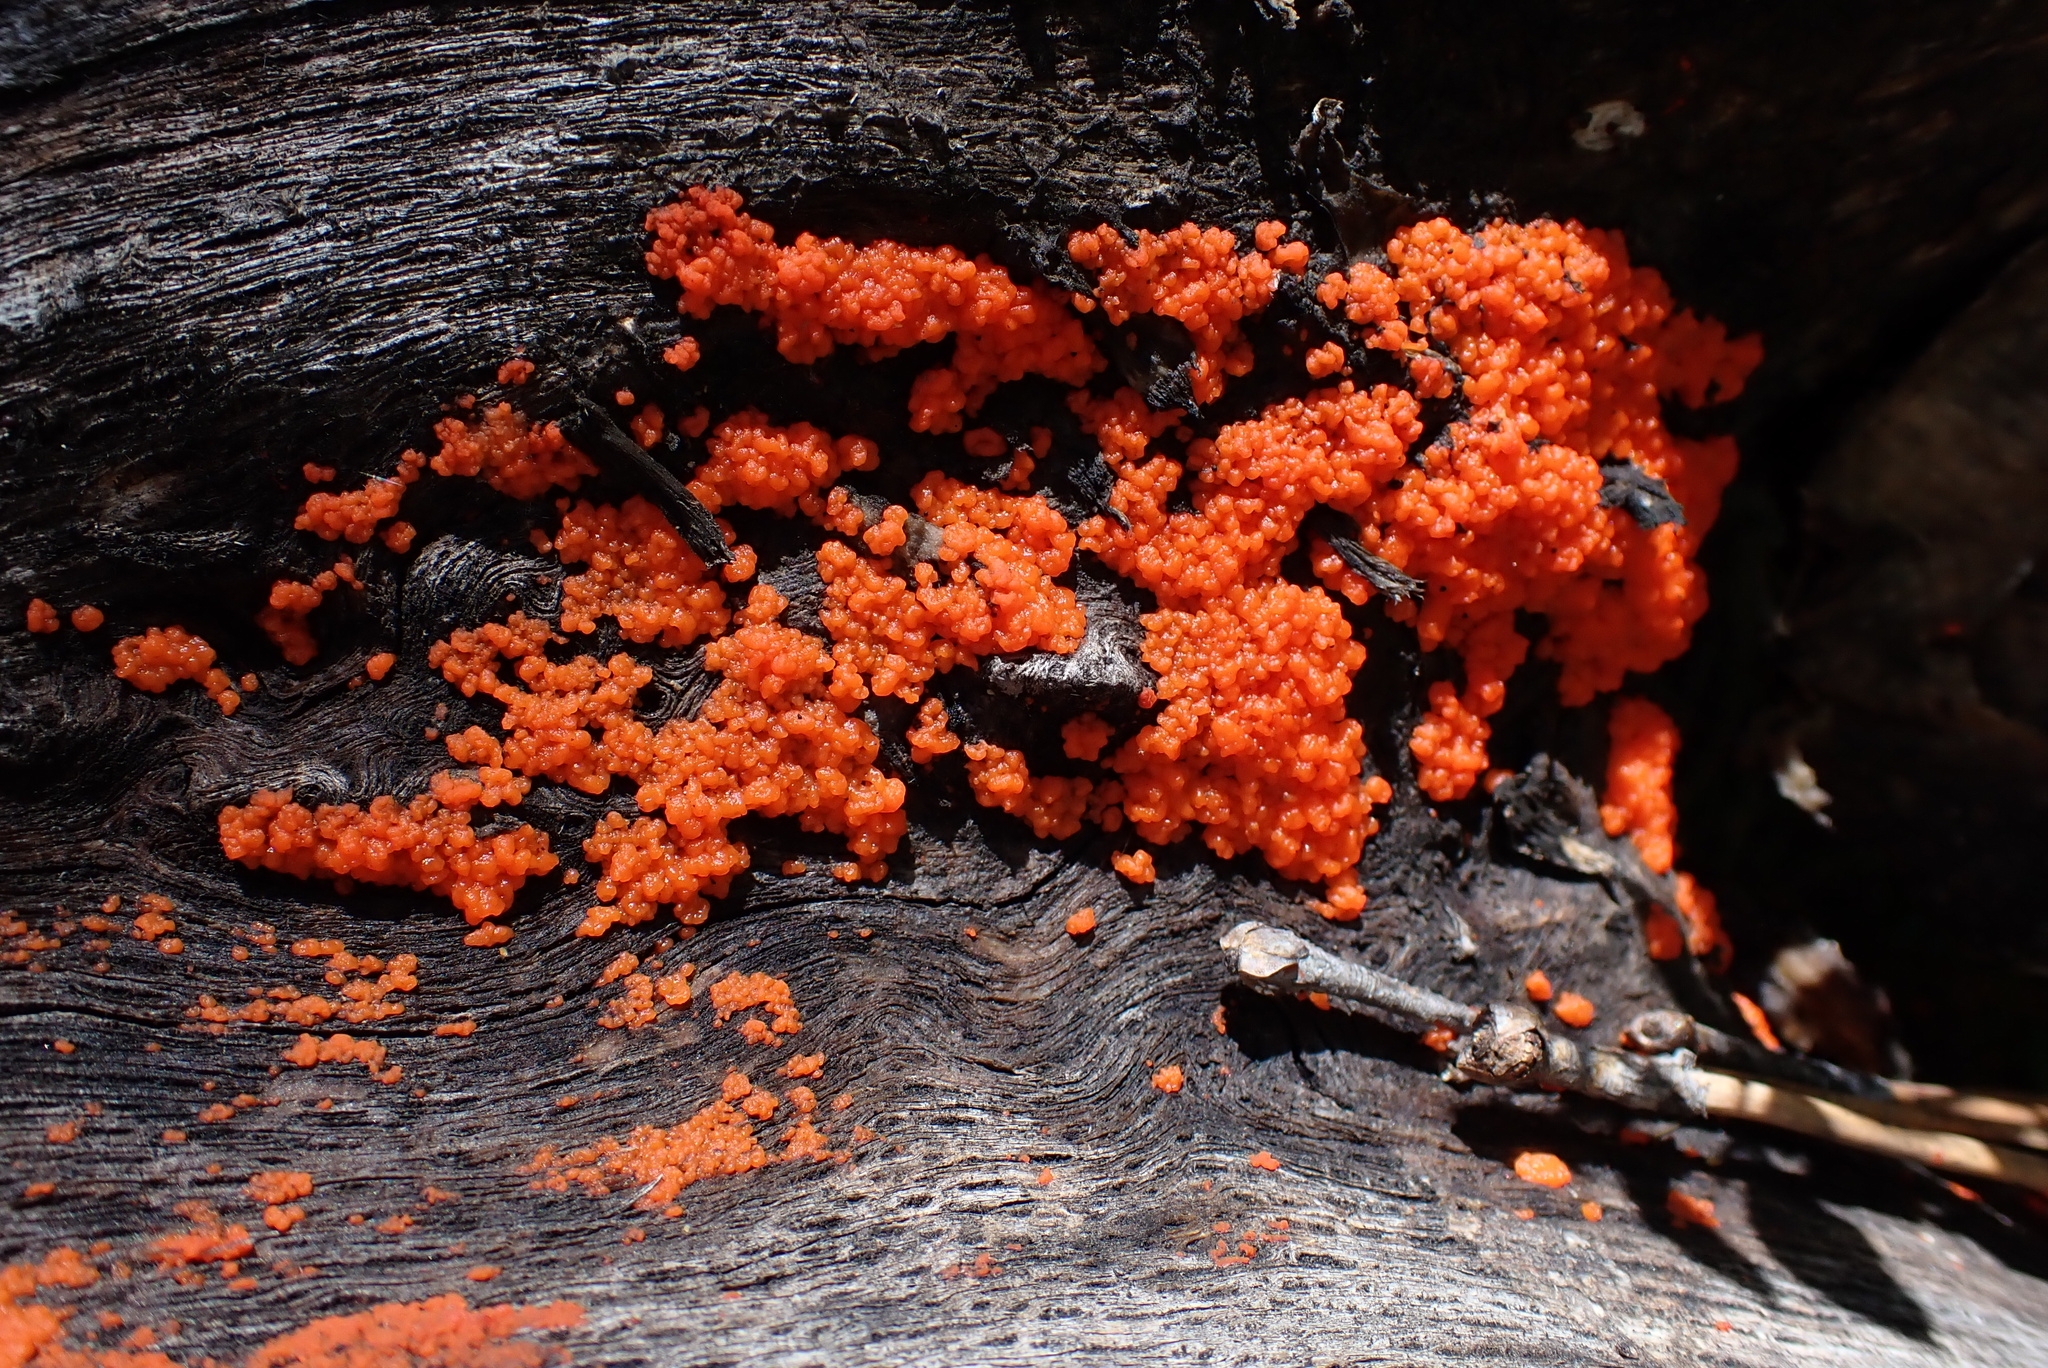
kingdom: Fungi
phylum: Basidiomycota
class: Agaricomycetes
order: Cantharellales
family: Tulasnellaceae
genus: Tulasnella
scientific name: Tulasnella aurantiaca
